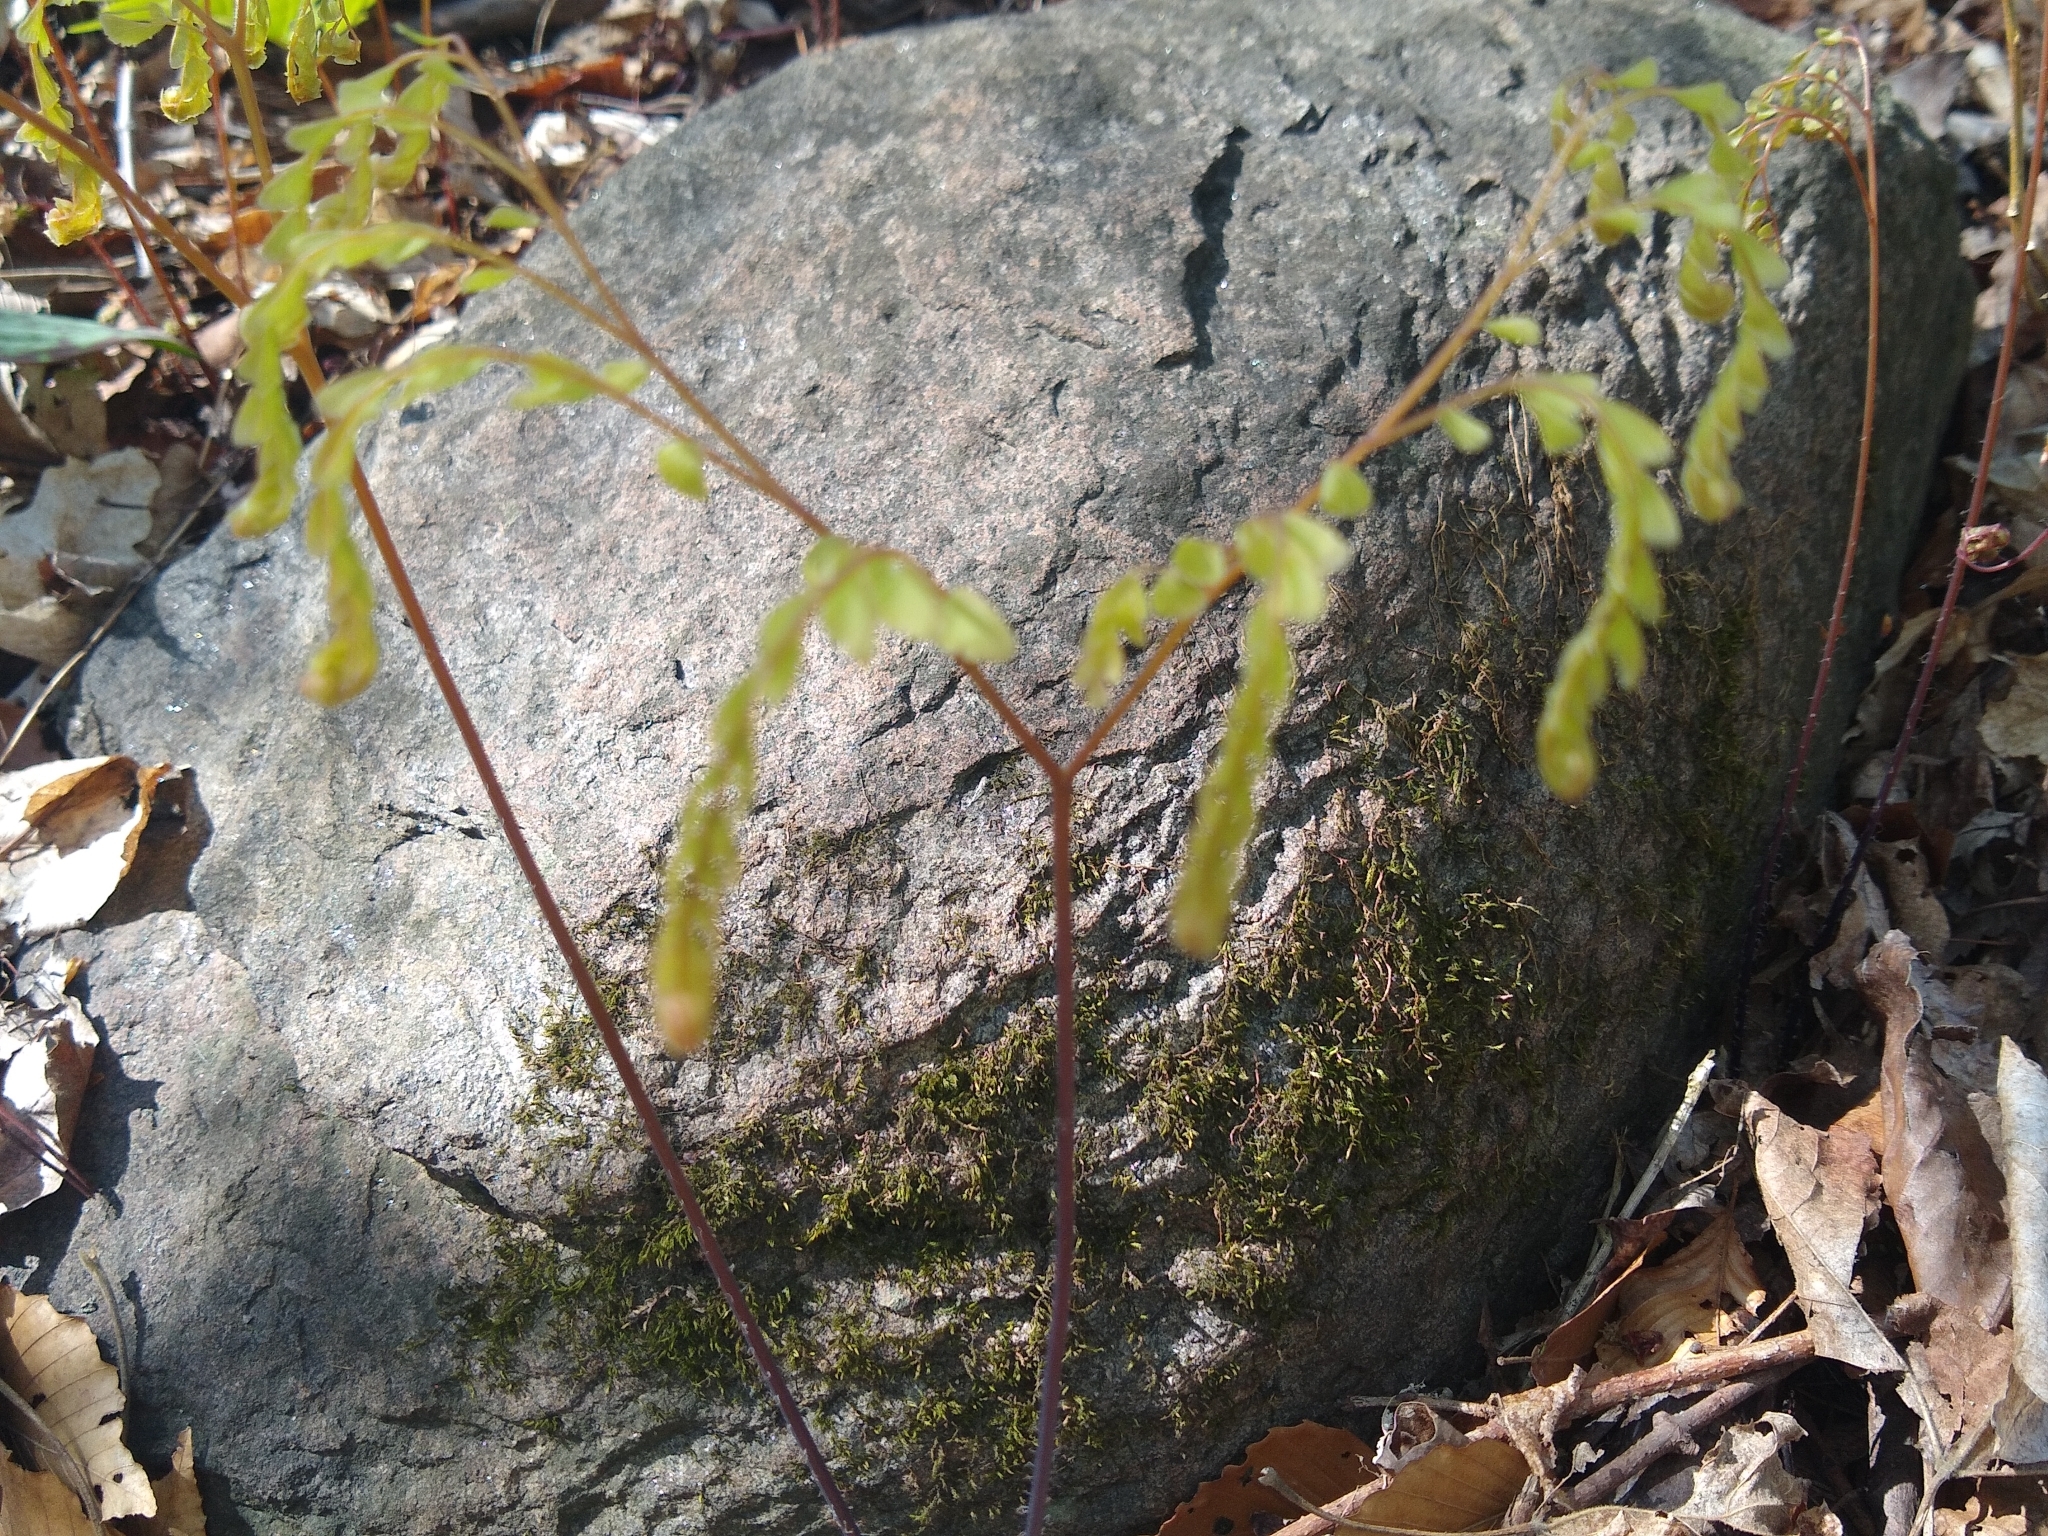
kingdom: Plantae
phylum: Tracheophyta
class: Polypodiopsida
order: Polypodiales
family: Pteridaceae
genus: Adiantum
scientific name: Adiantum pedatum
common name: Five-finger fern
